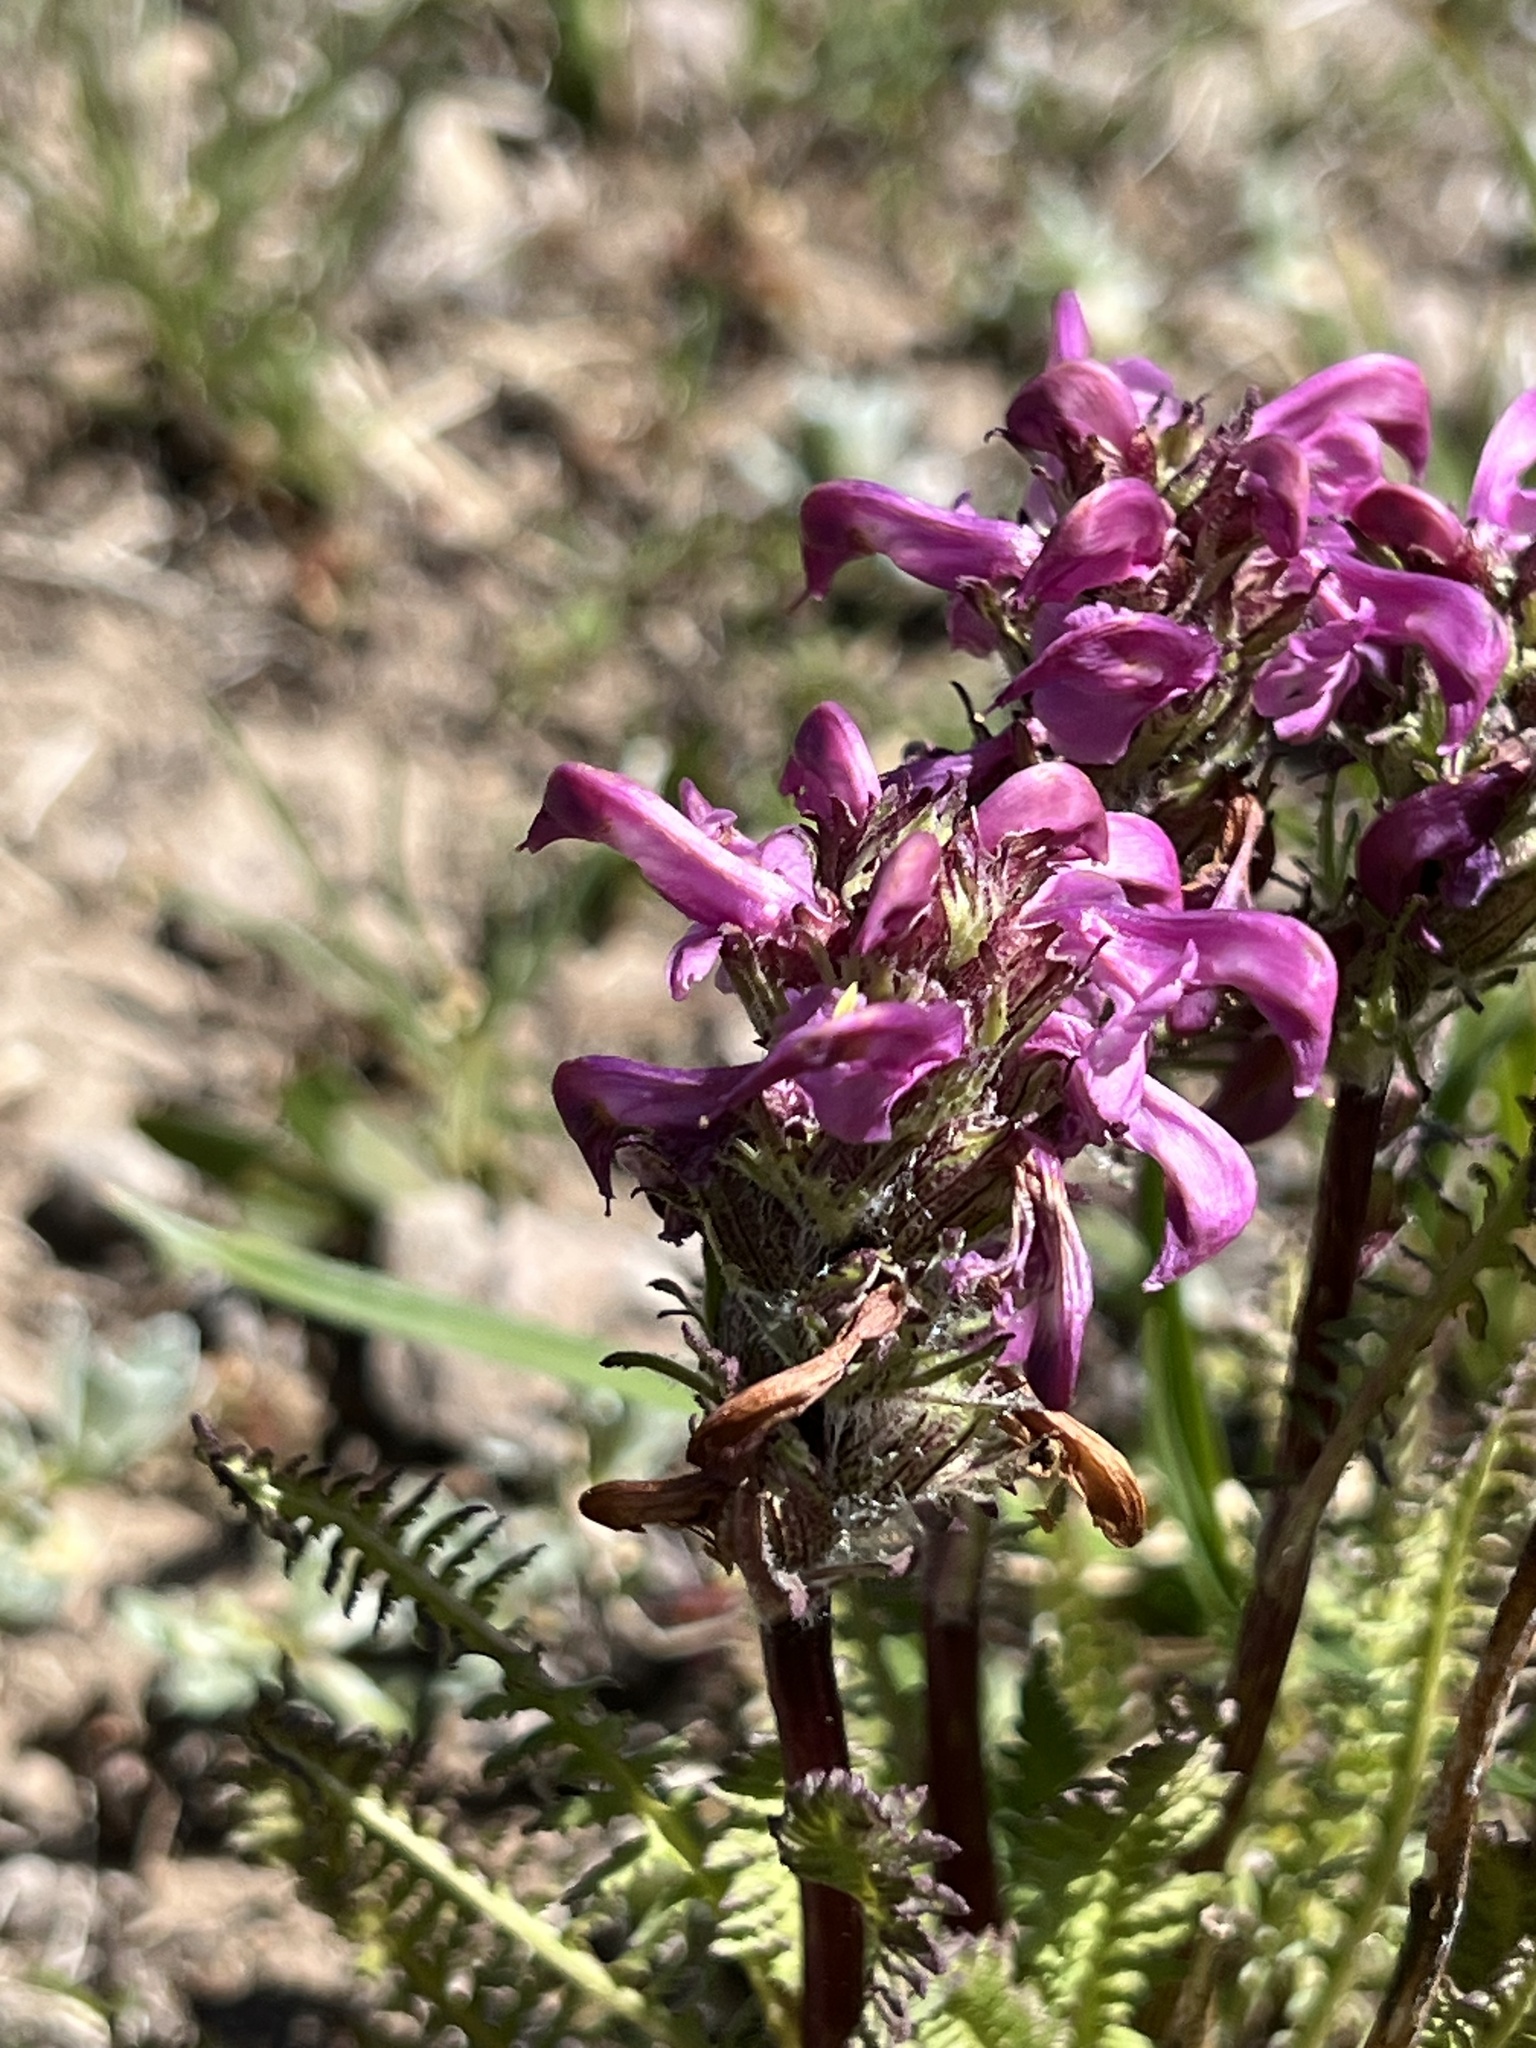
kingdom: Plantae
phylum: Tracheophyta
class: Magnoliopsida
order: Lamiales
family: Orobanchaceae
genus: Pedicularis
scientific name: Pedicularis parryi
